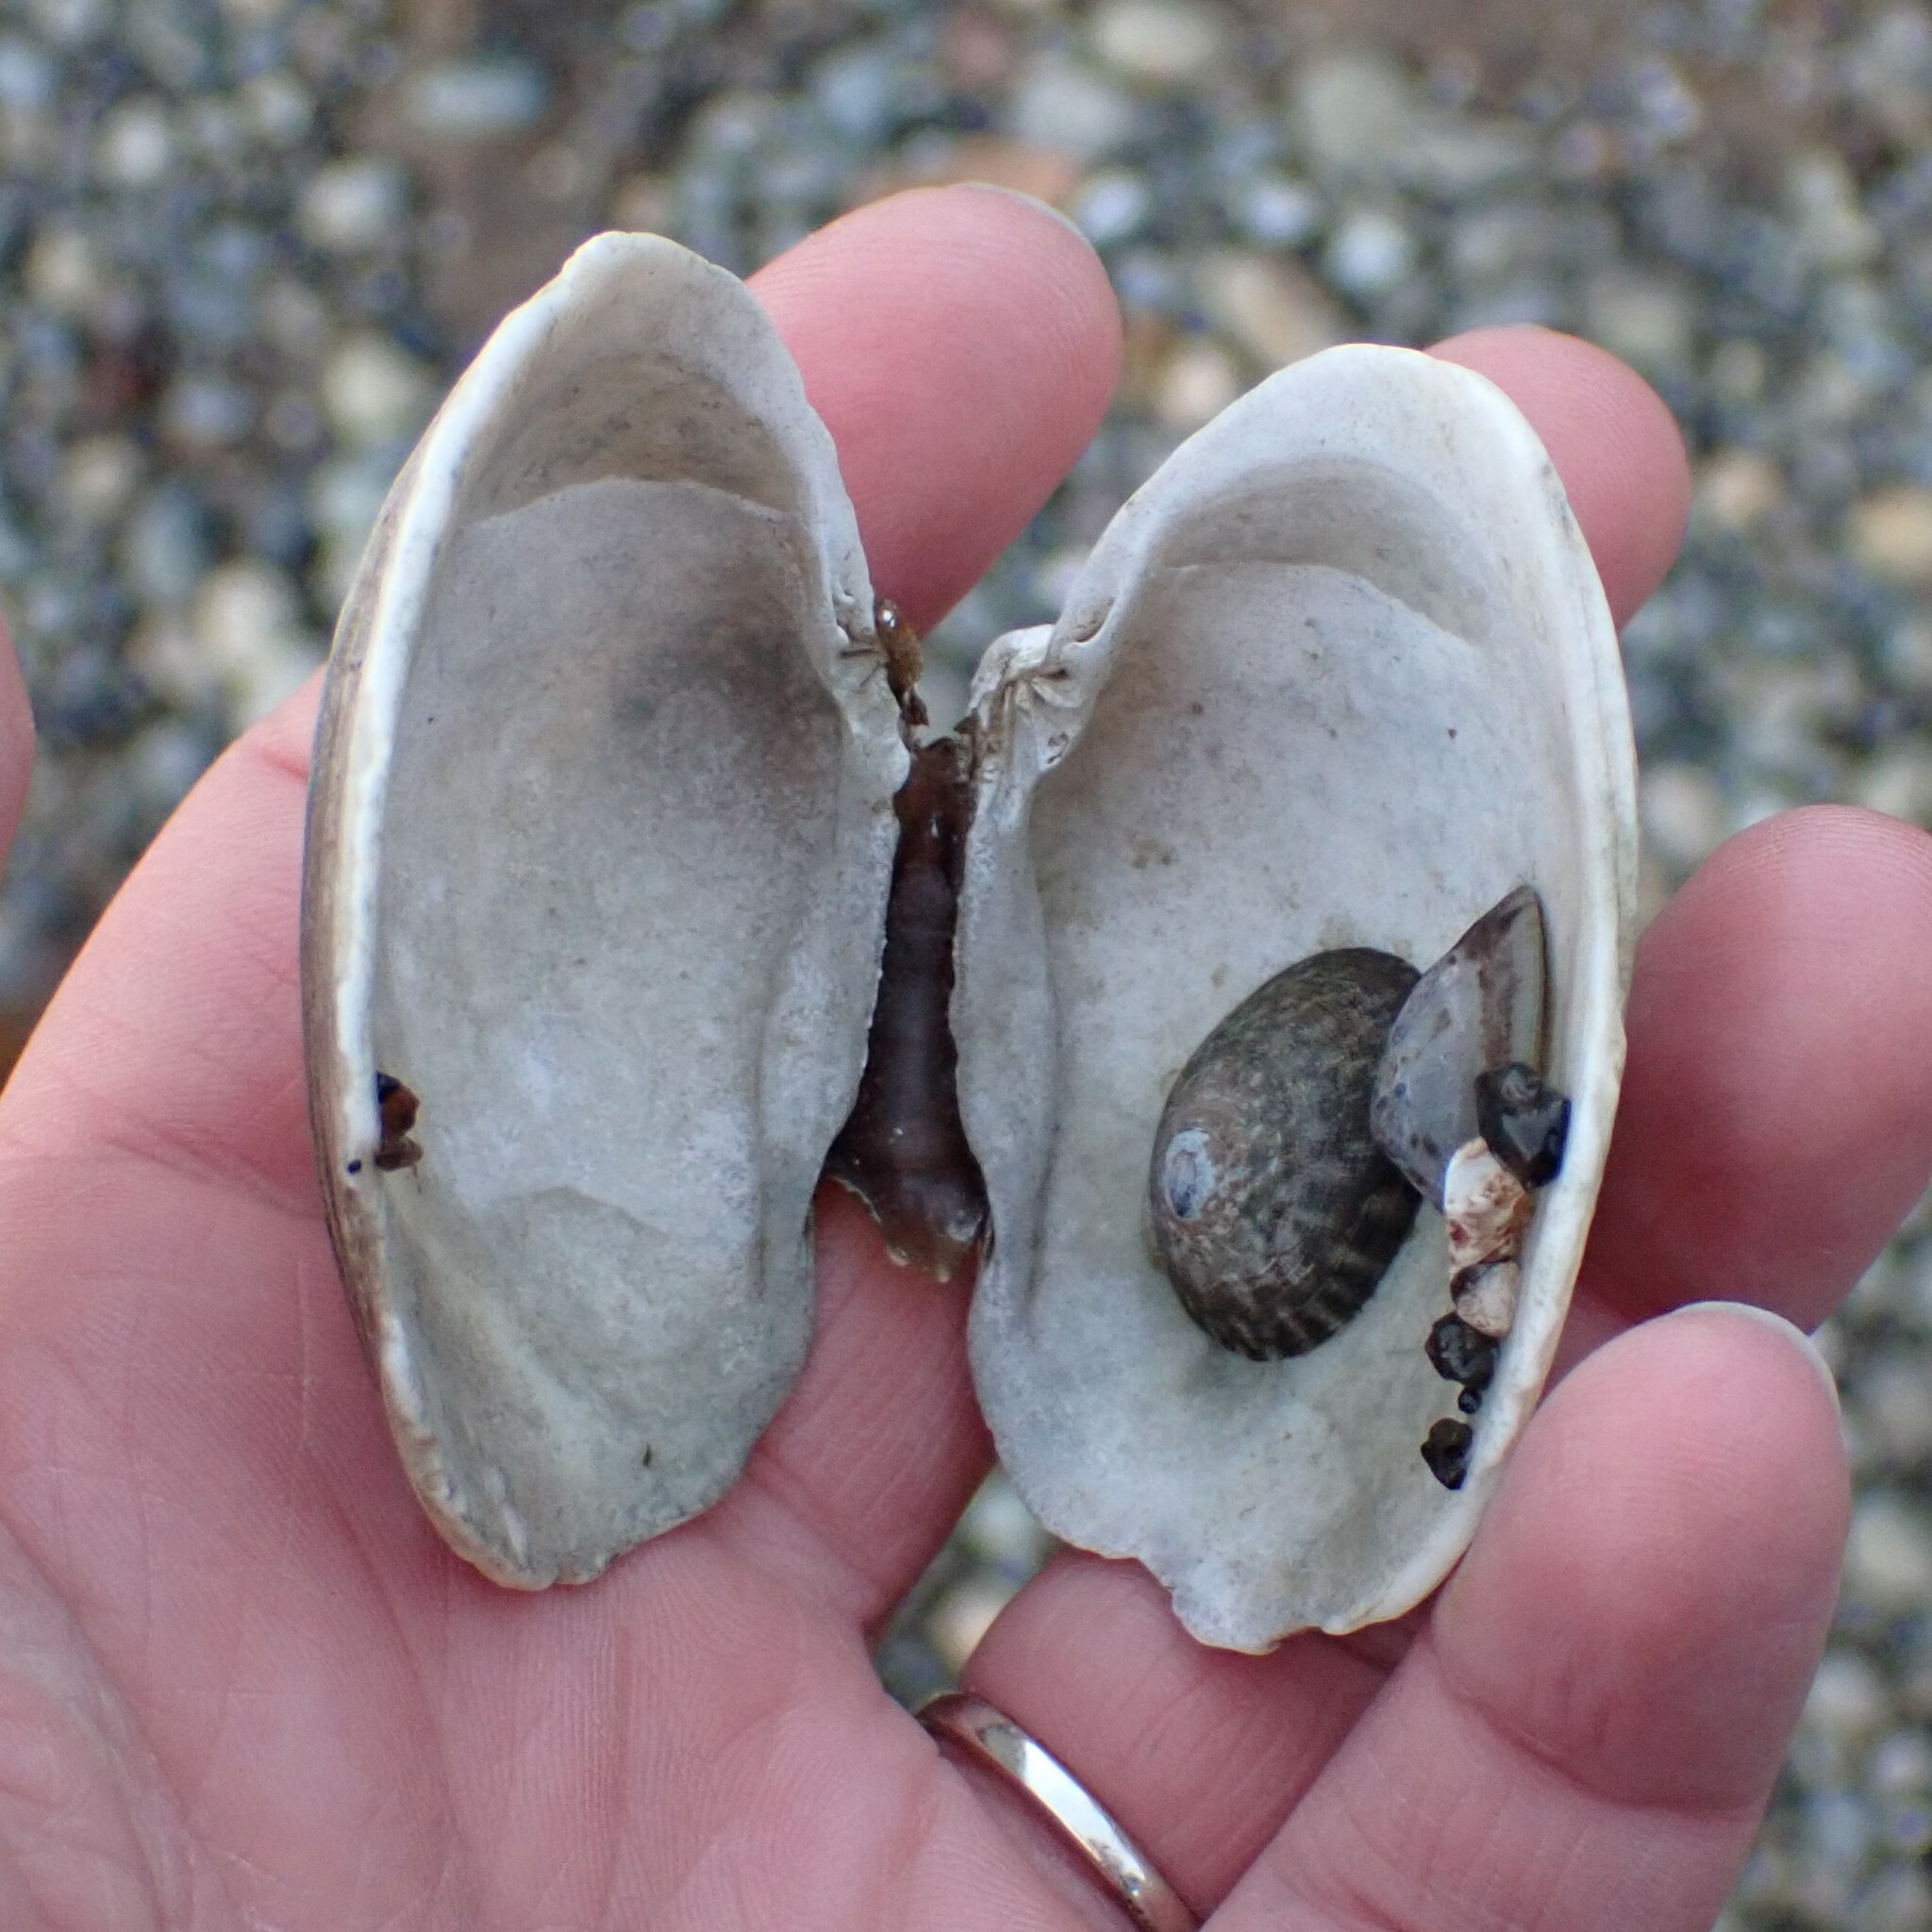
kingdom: Animalia
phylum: Mollusca
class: Bivalvia
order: Venerida
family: Veneridae
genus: Saxidomus
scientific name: Saxidomus gigantea
